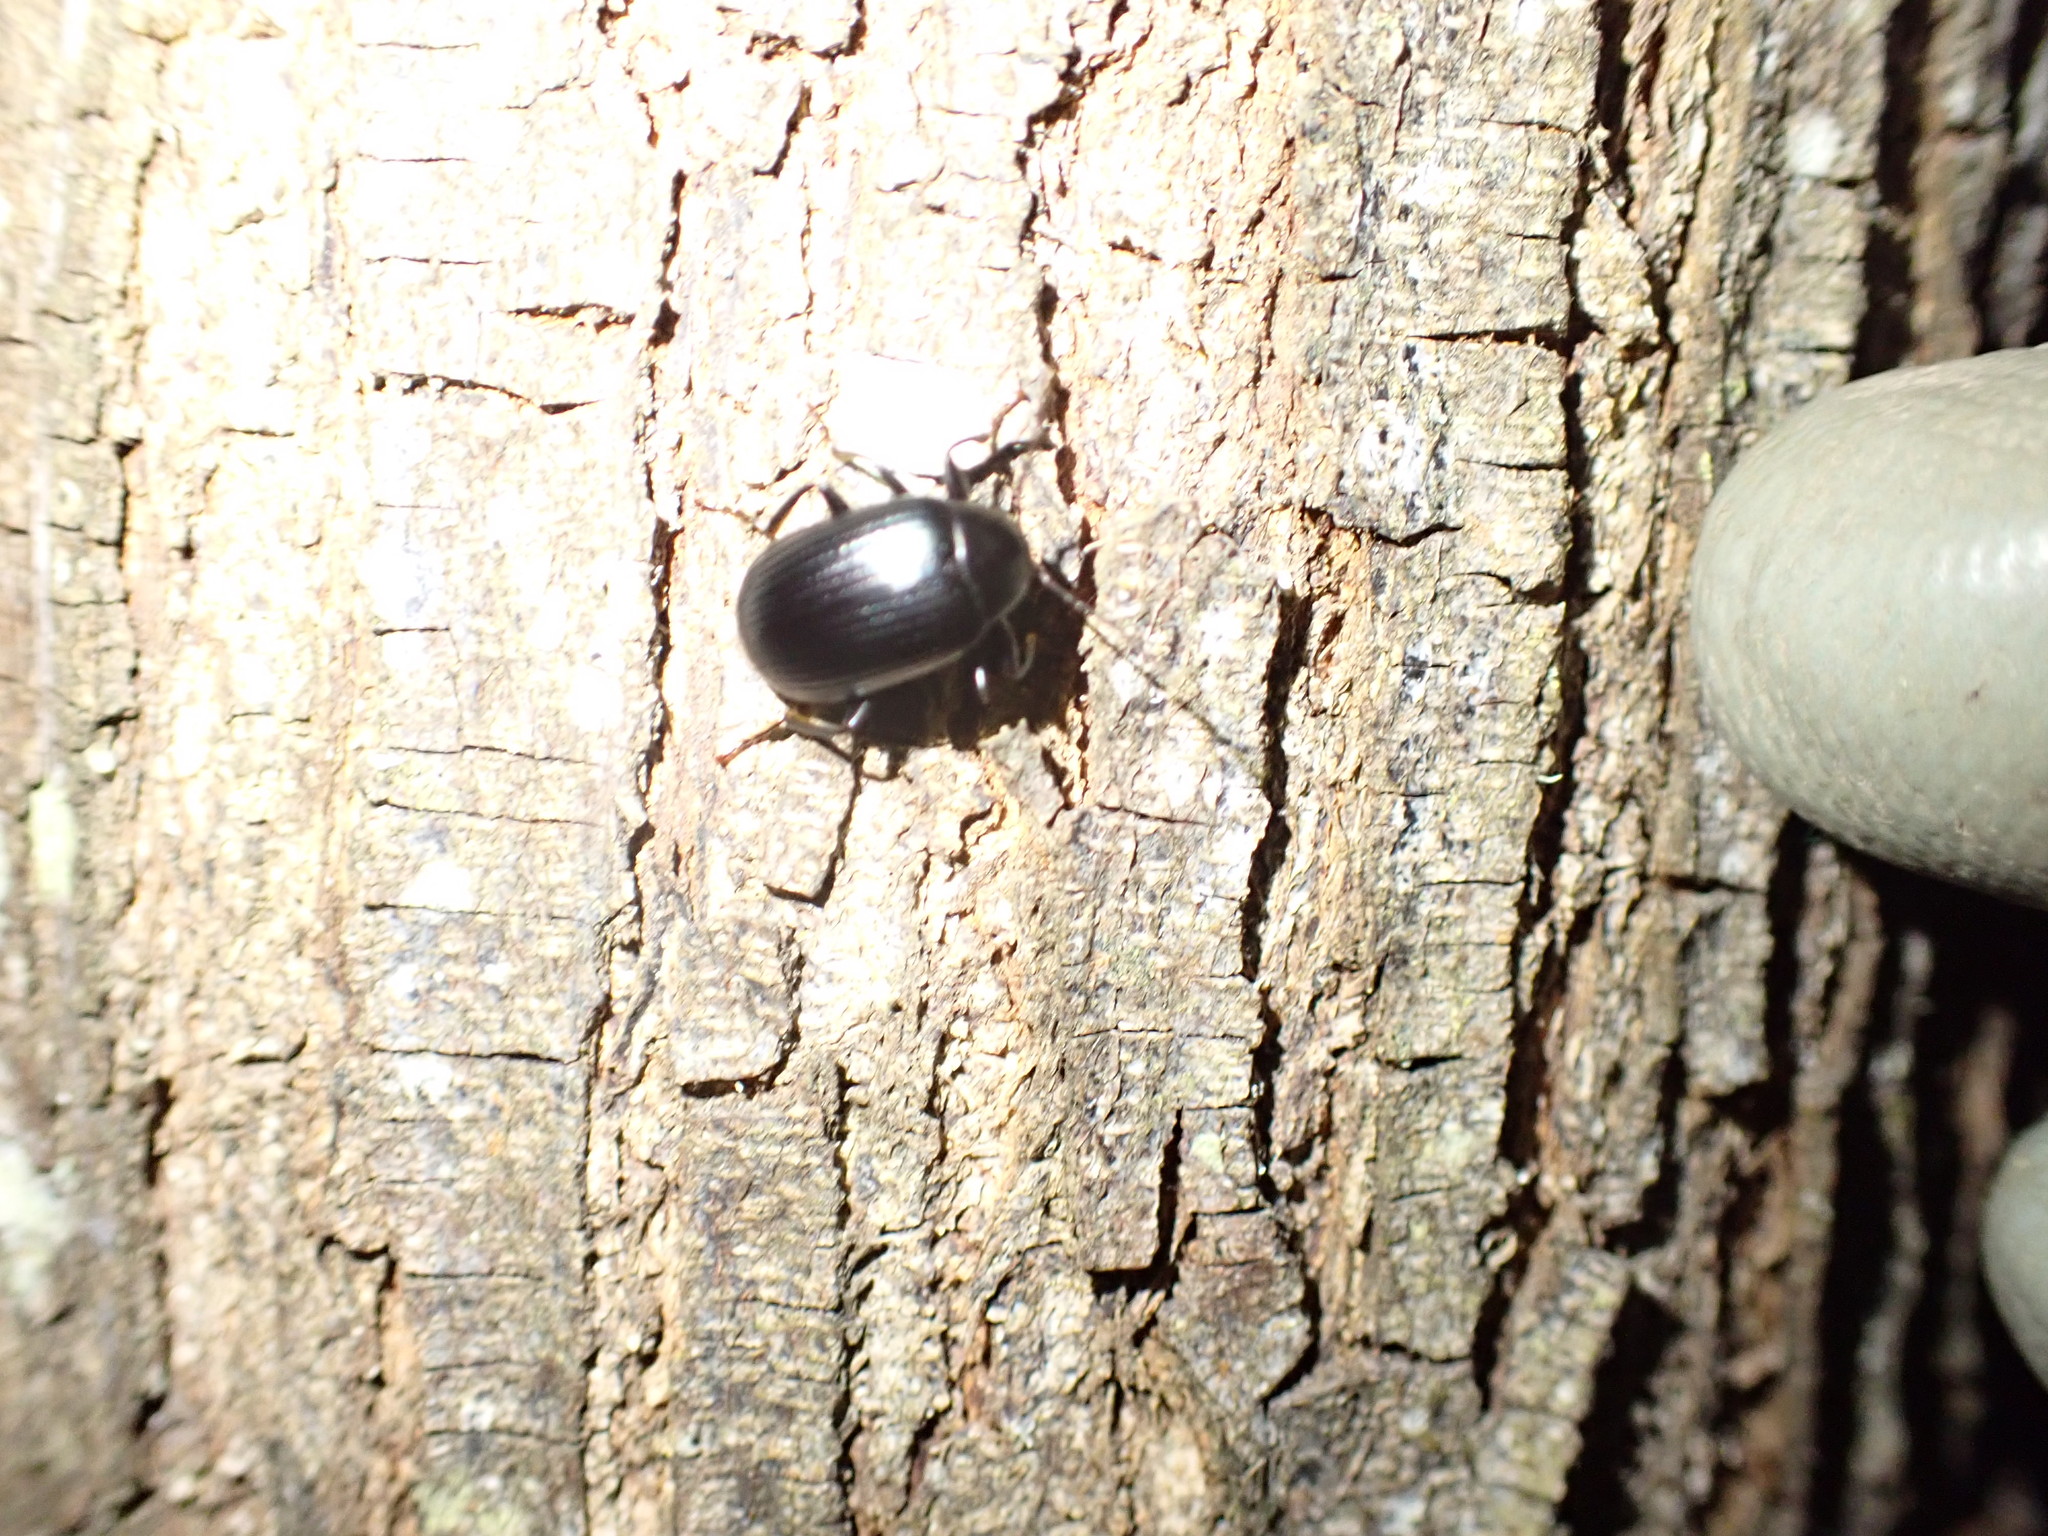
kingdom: Animalia
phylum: Arthropoda
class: Insecta
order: Coleoptera
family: Tenebrionidae
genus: Amarygmus
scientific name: Amarygmus
